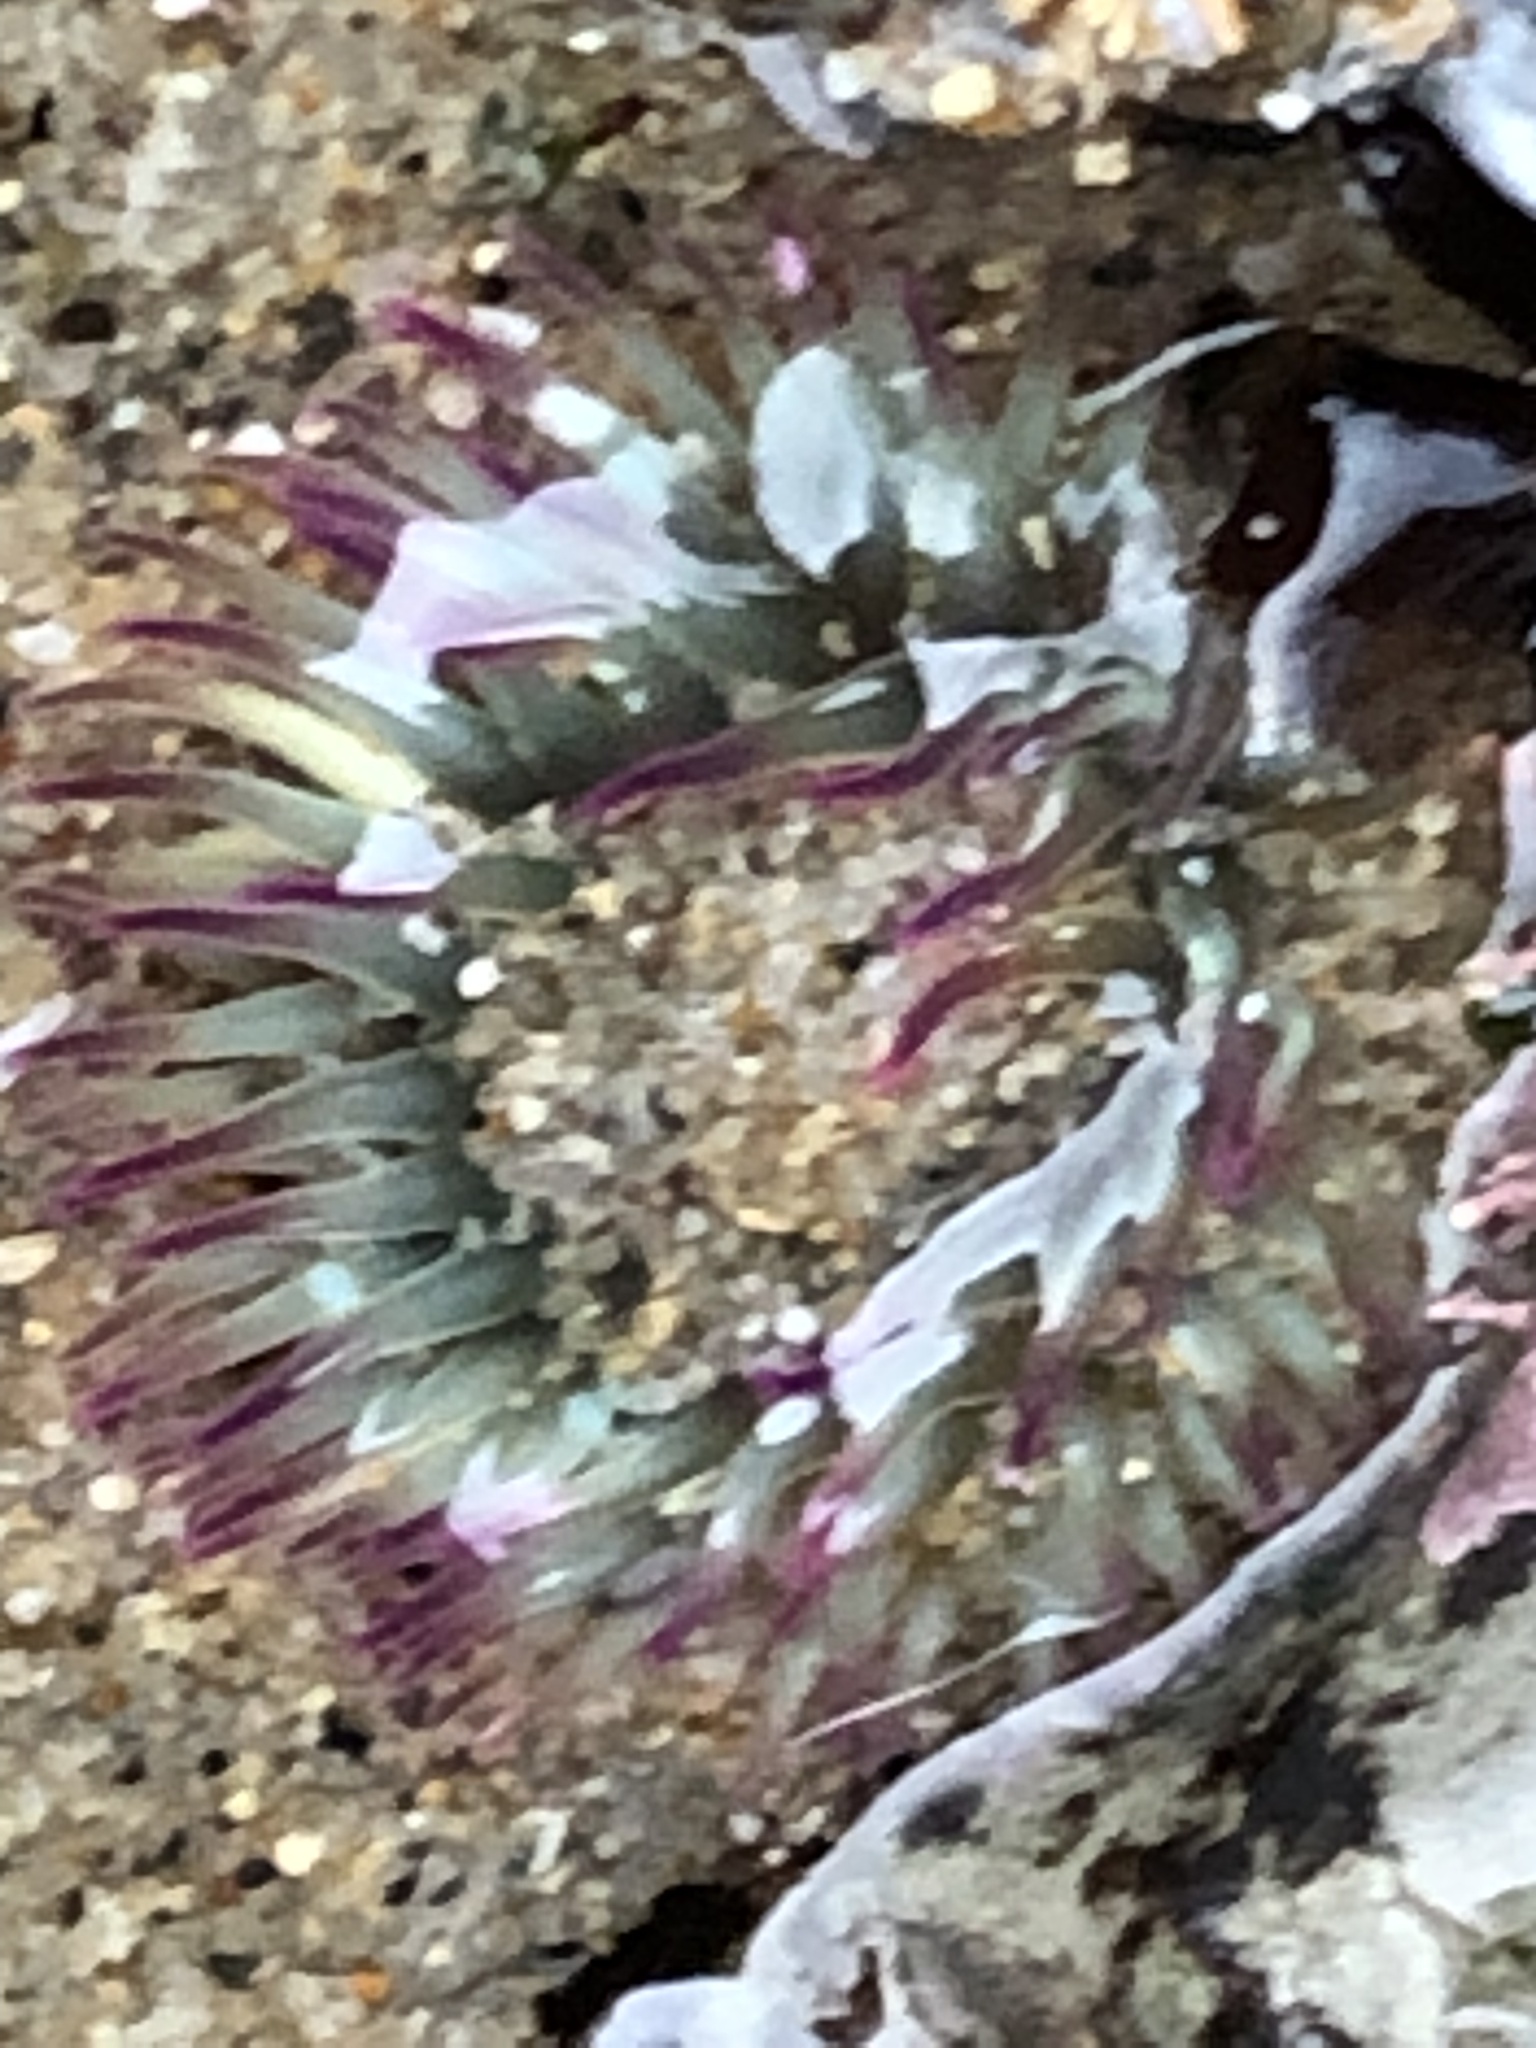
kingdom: Animalia
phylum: Cnidaria
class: Anthozoa
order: Actiniaria
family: Actiniidae
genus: Anthopleura
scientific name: Anthopleura elegantissima
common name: Clonal anemone
